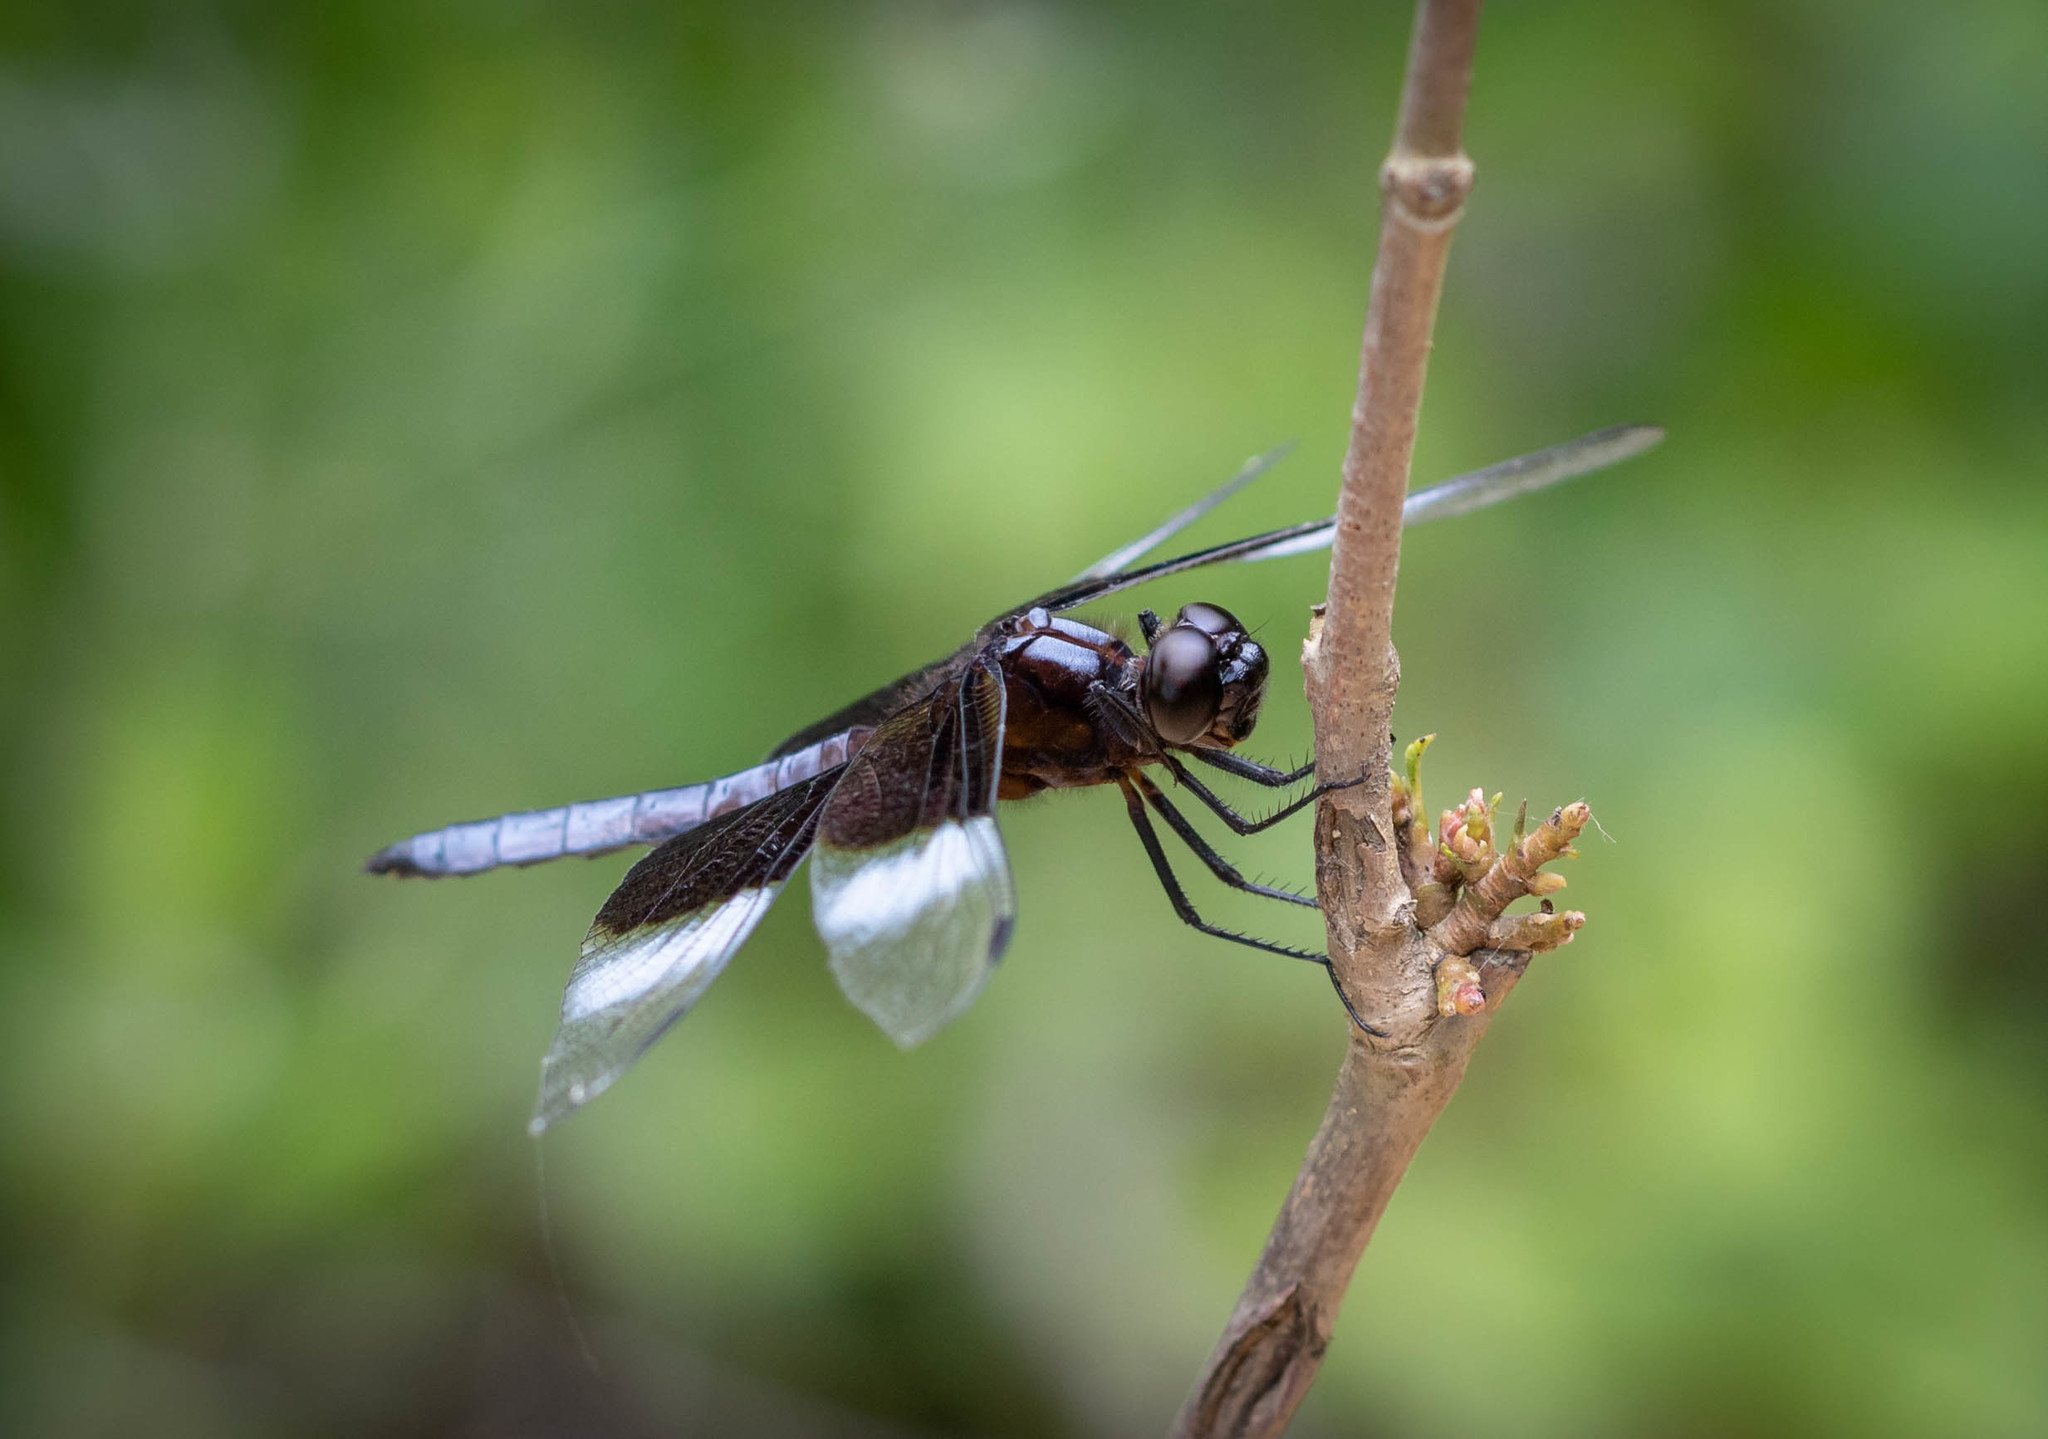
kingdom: Animalia
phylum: Arthropoda
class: Insecta
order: Odonata
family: Libellulidae
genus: Libellula
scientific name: Libellula luctuosa
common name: Widow skimmer
